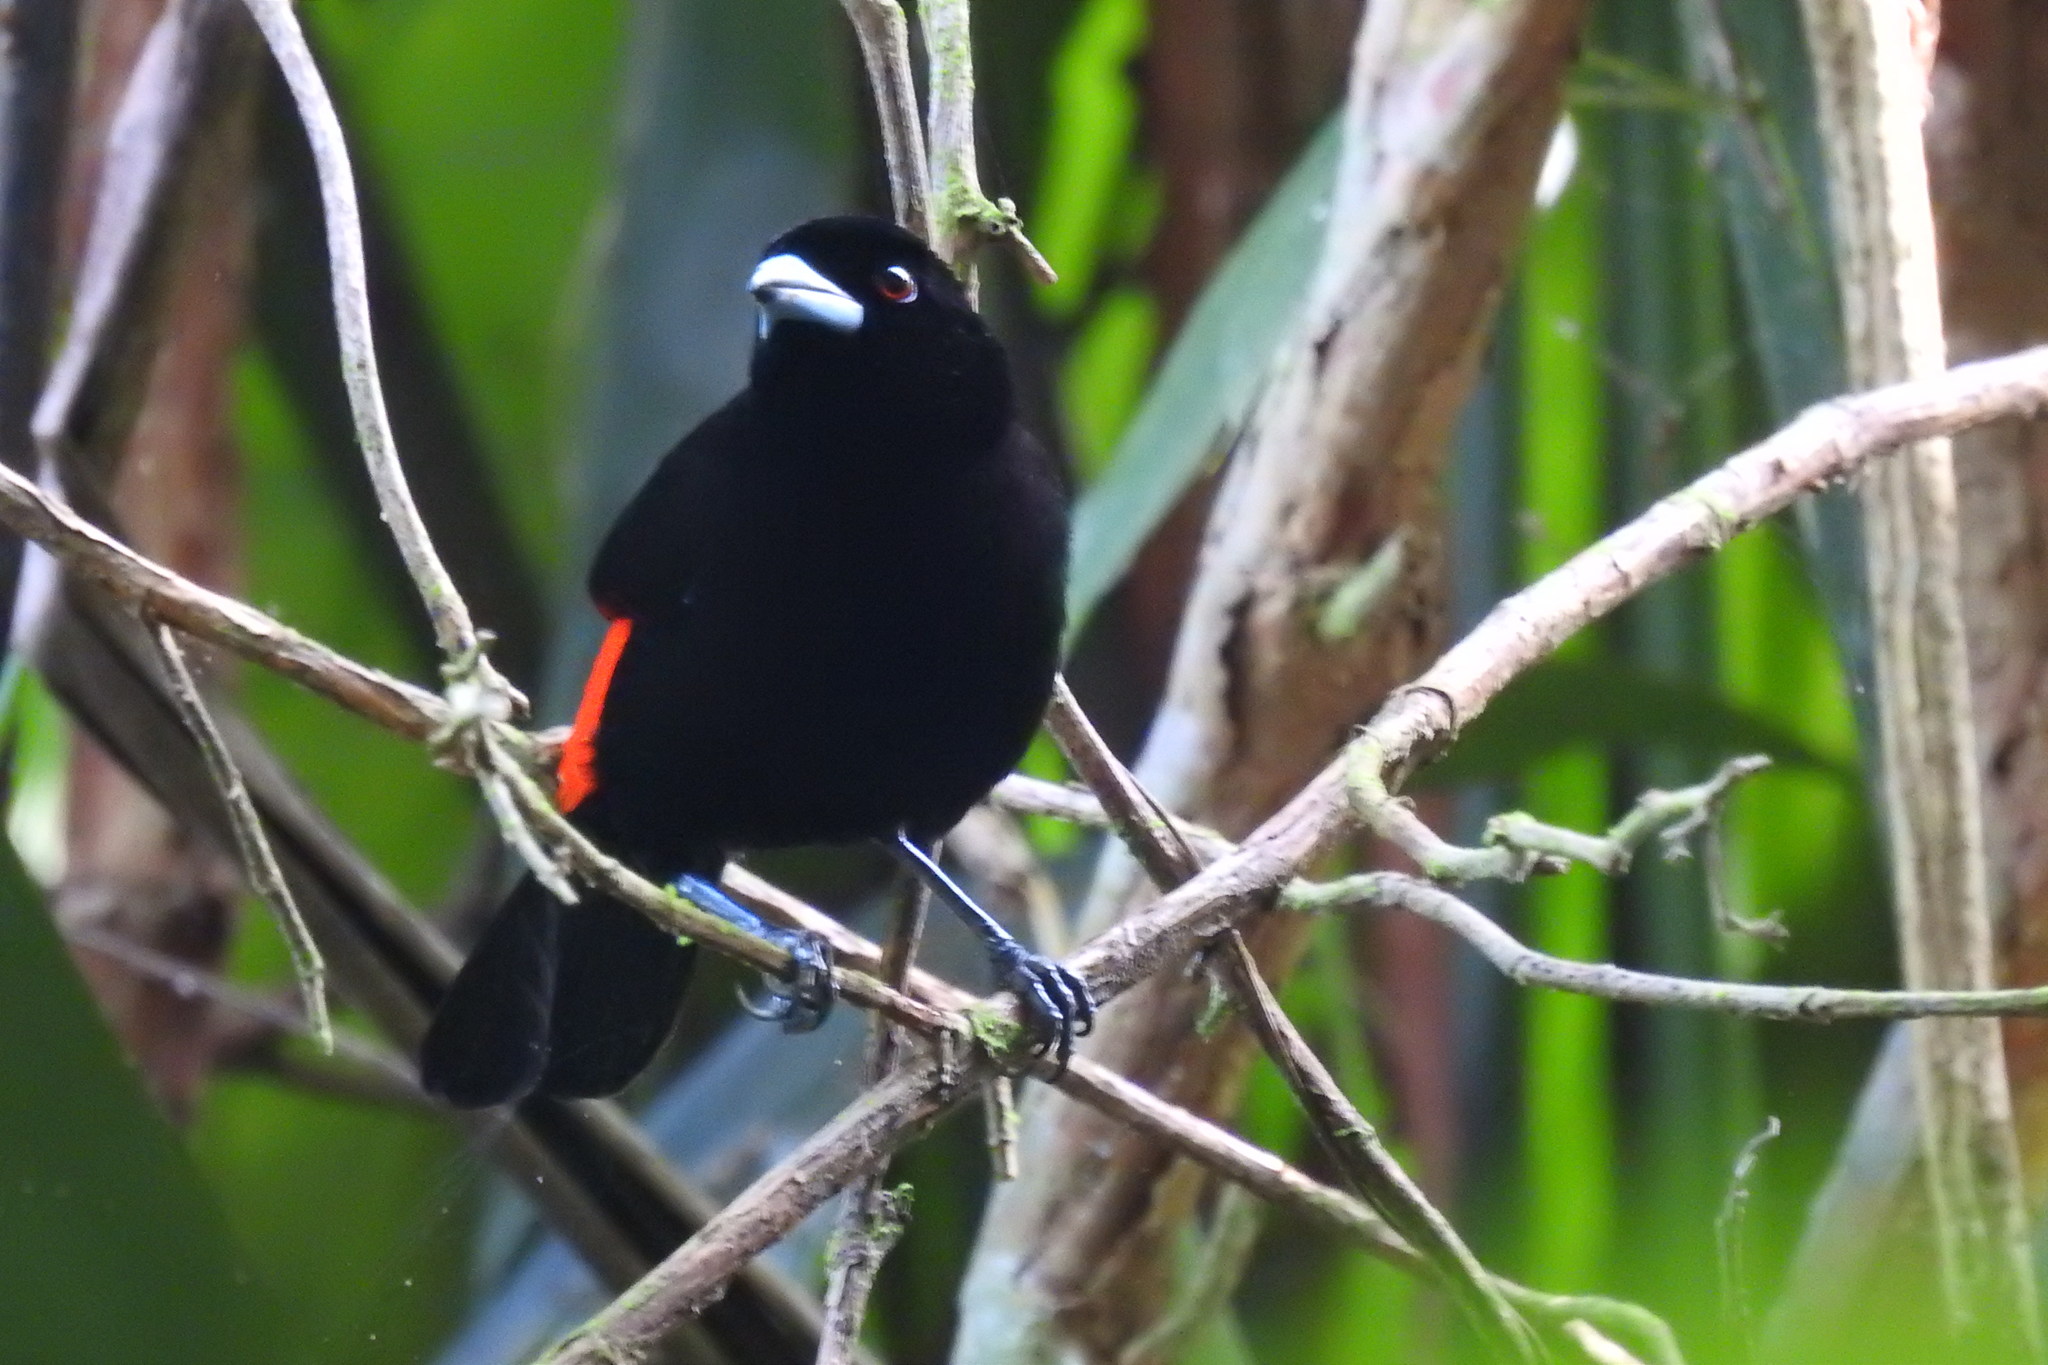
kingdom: Animalia
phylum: Chordata
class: Aves
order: Passeriformes
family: Thraupidae
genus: Ramphocelus
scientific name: Ramphocelus passerinii
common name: Passerini's tanager
